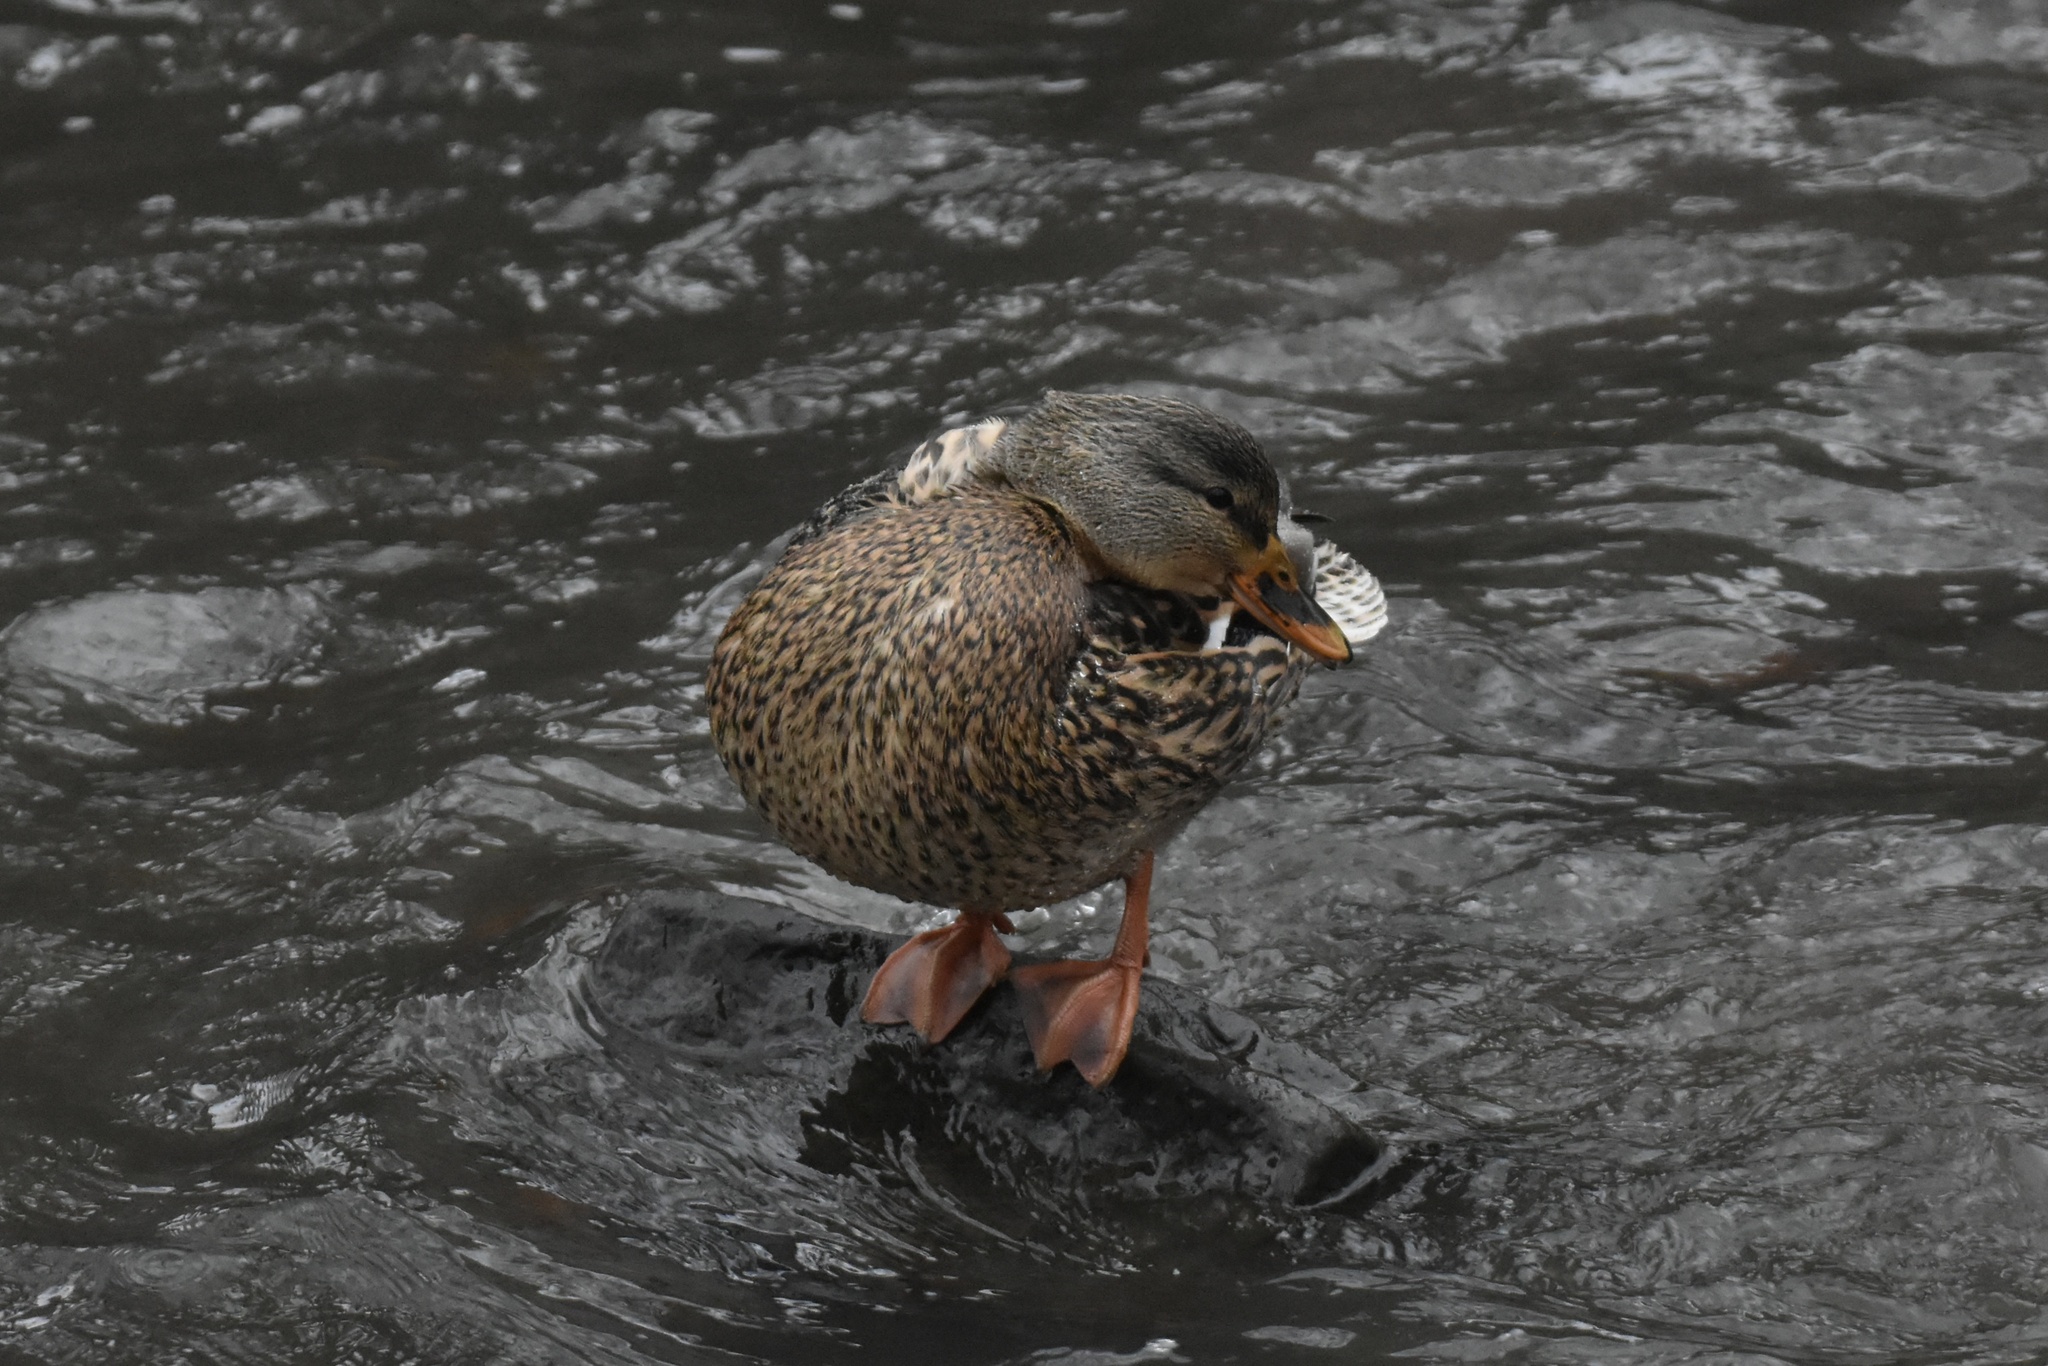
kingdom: Animalia
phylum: Chordata
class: Aves
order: Anseriformes
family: Anatidae
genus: Anas
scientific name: Anas platyrhynchos
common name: Mallard
